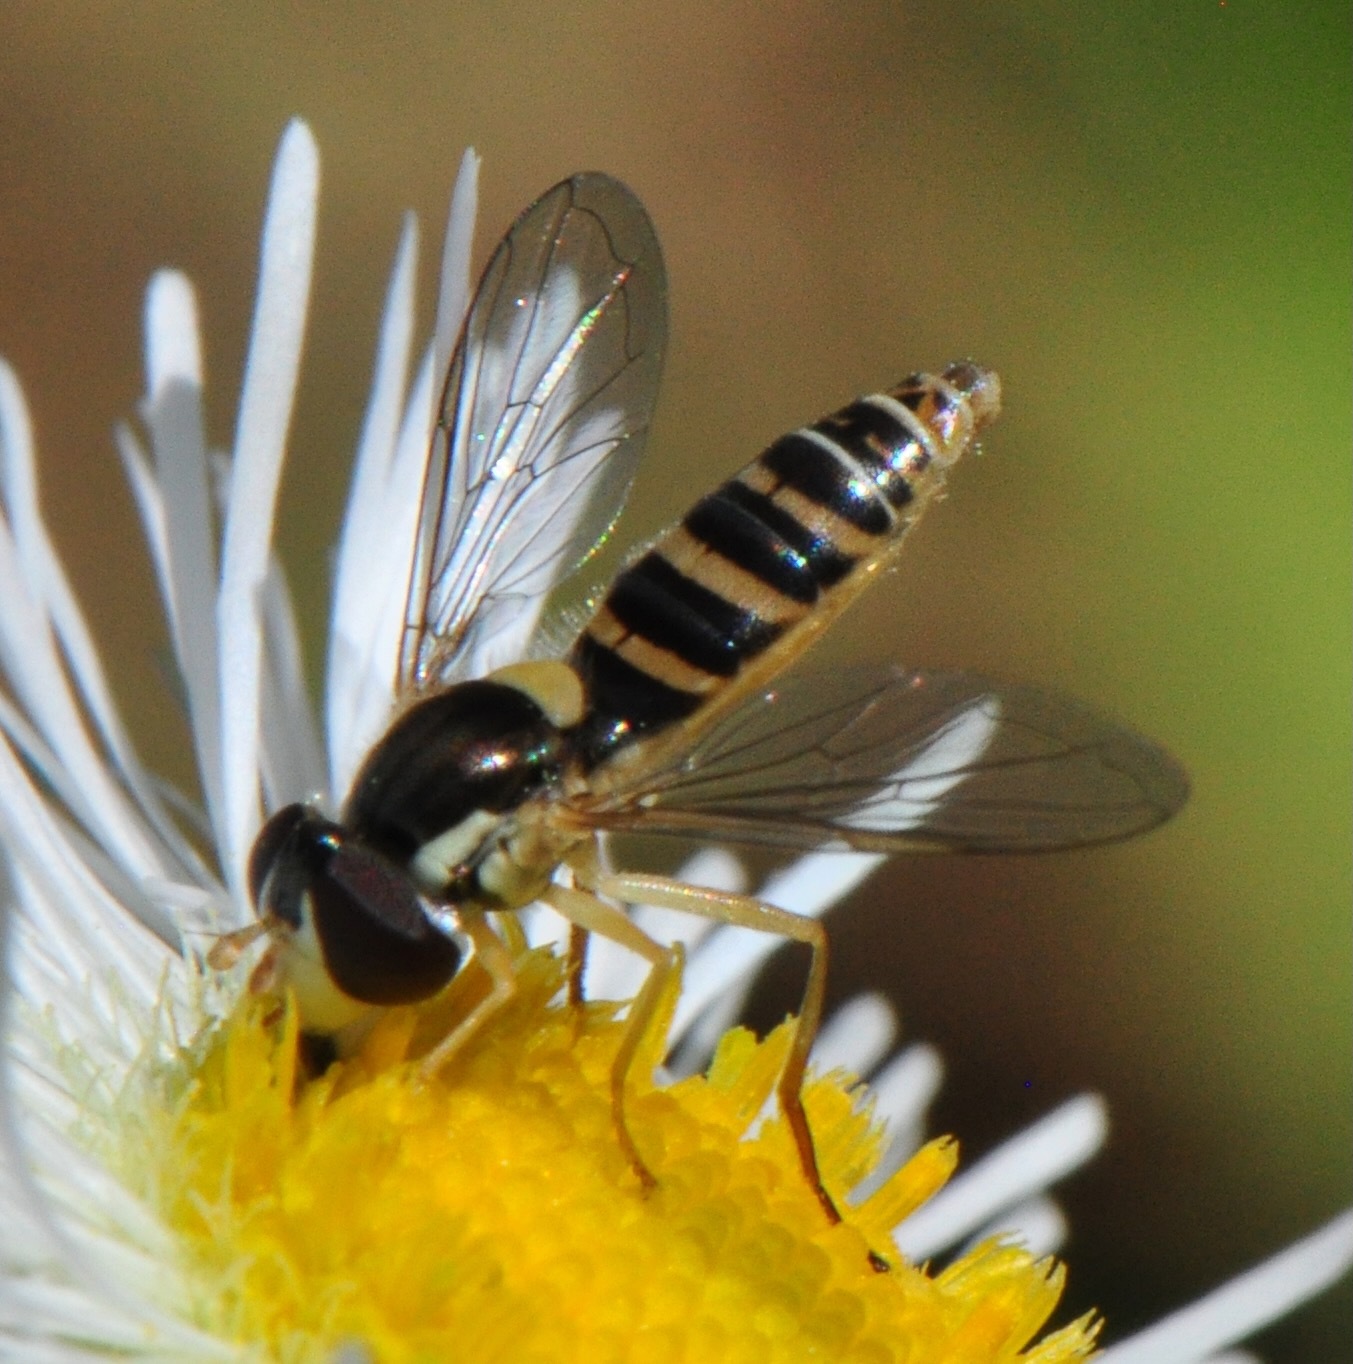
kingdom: Animalia
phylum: Arthropoda
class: Insecta
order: Diptera
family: Syrphidae
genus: Sphaerophoria
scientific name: Sphaerophoria contigua
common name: Tufted globetail
